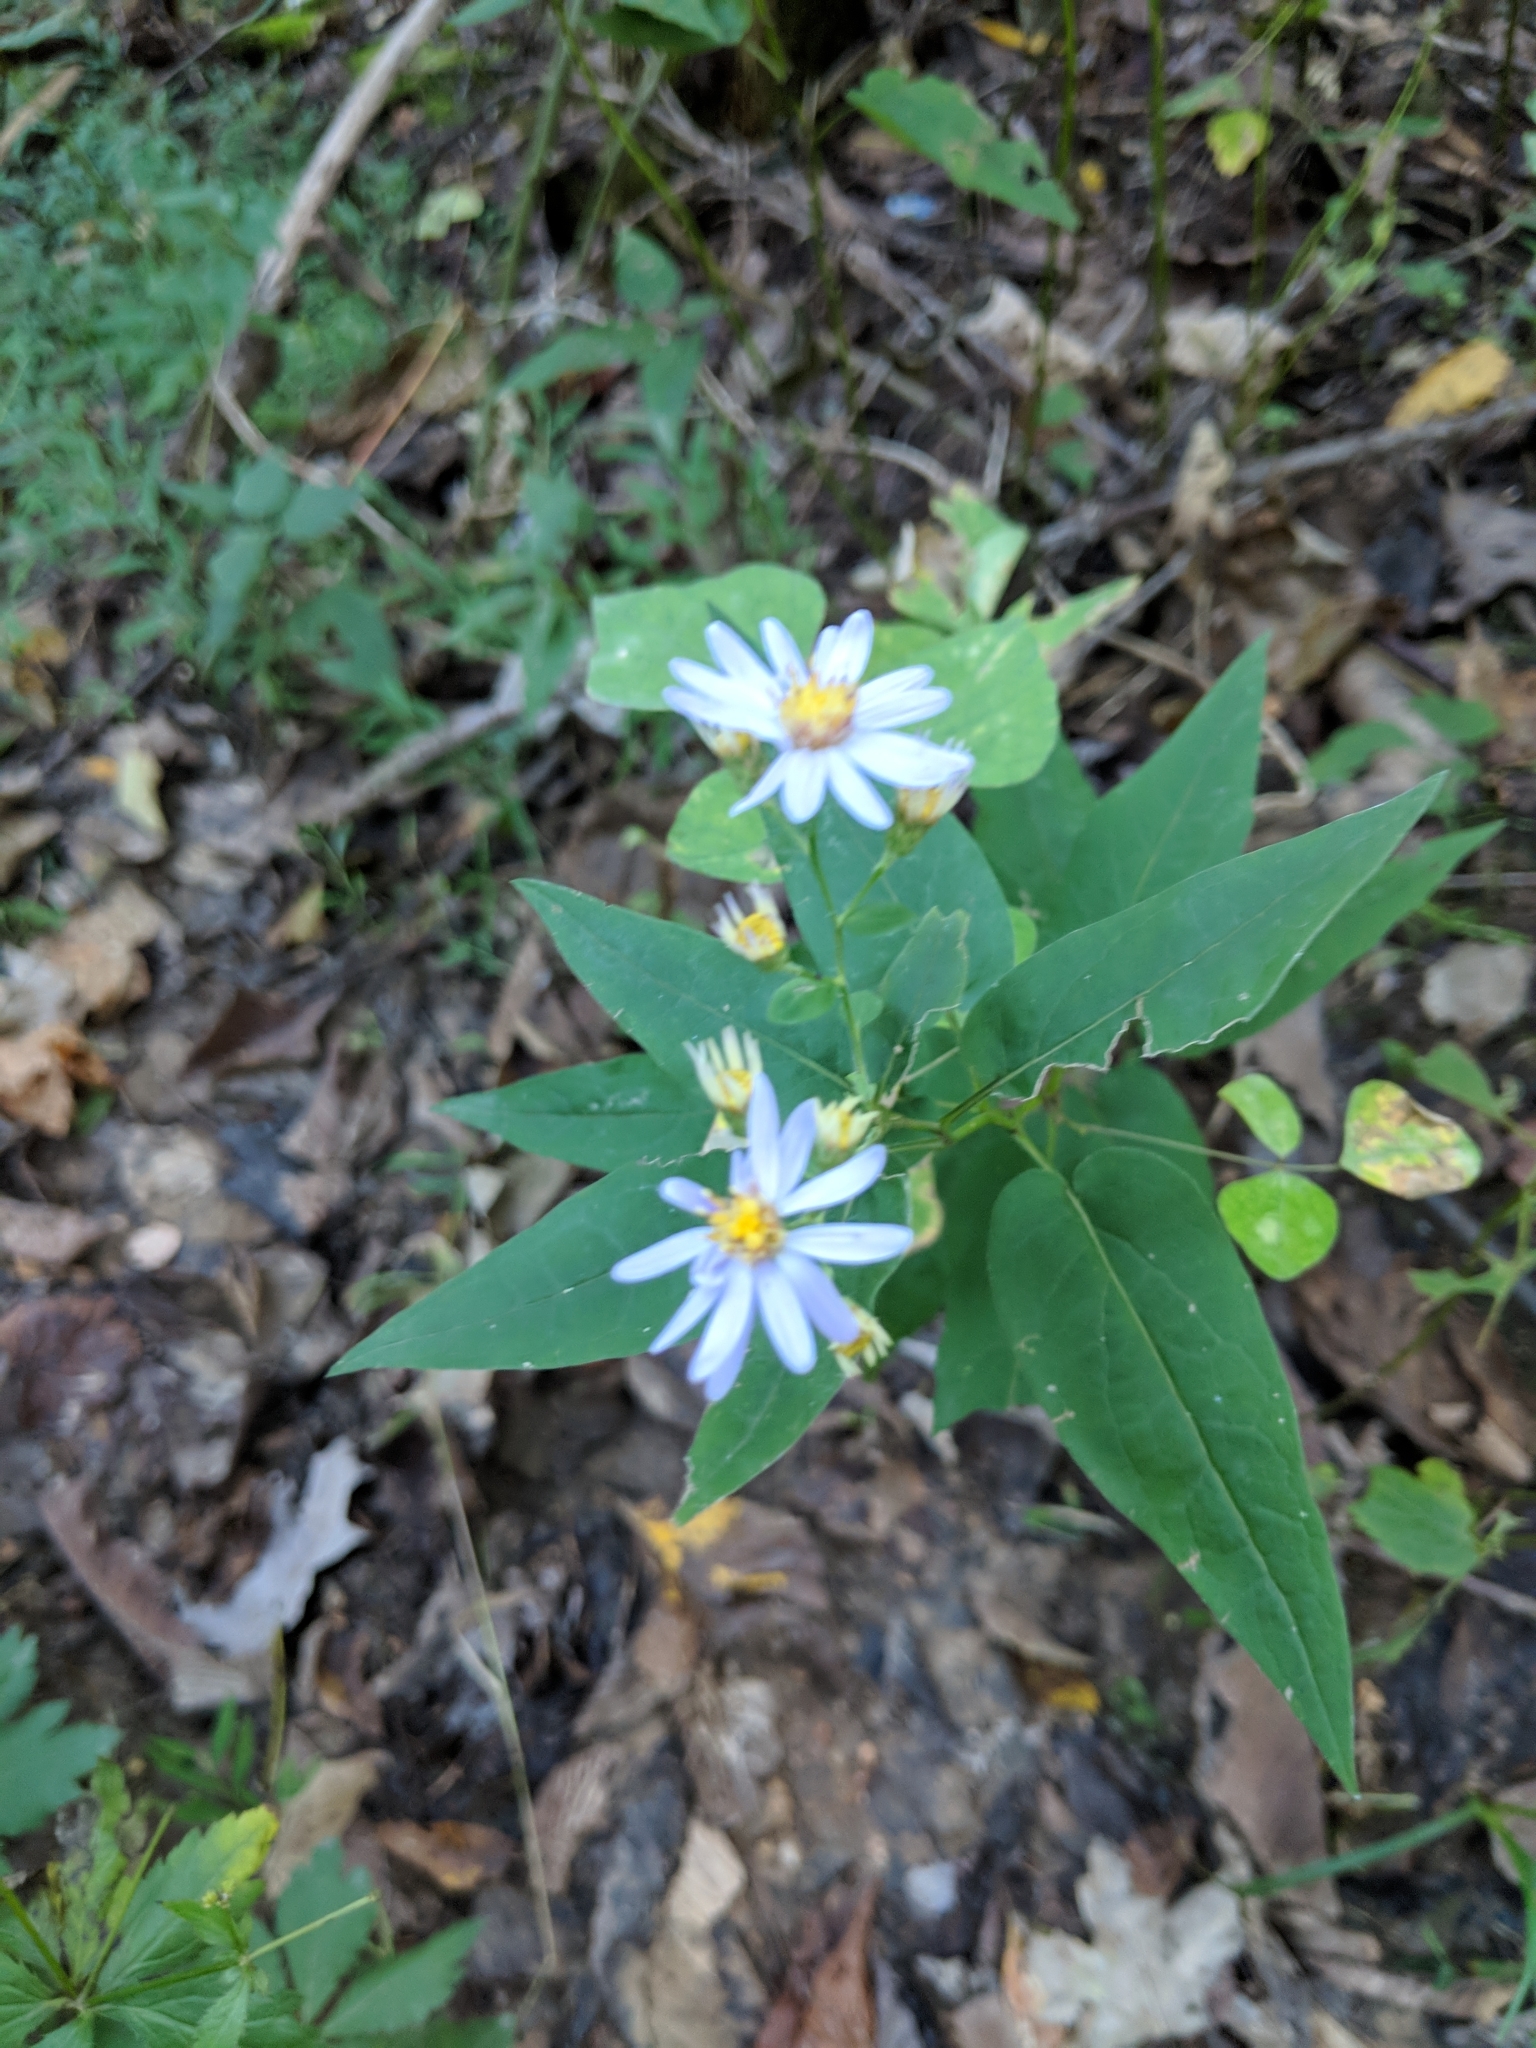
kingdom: Plantae
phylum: Tracheophyta
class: Magnoliopsida
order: Asterales
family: Asteraceae
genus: Symphyotrichum
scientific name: Symphyotrichum shortii
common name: Short's aster
